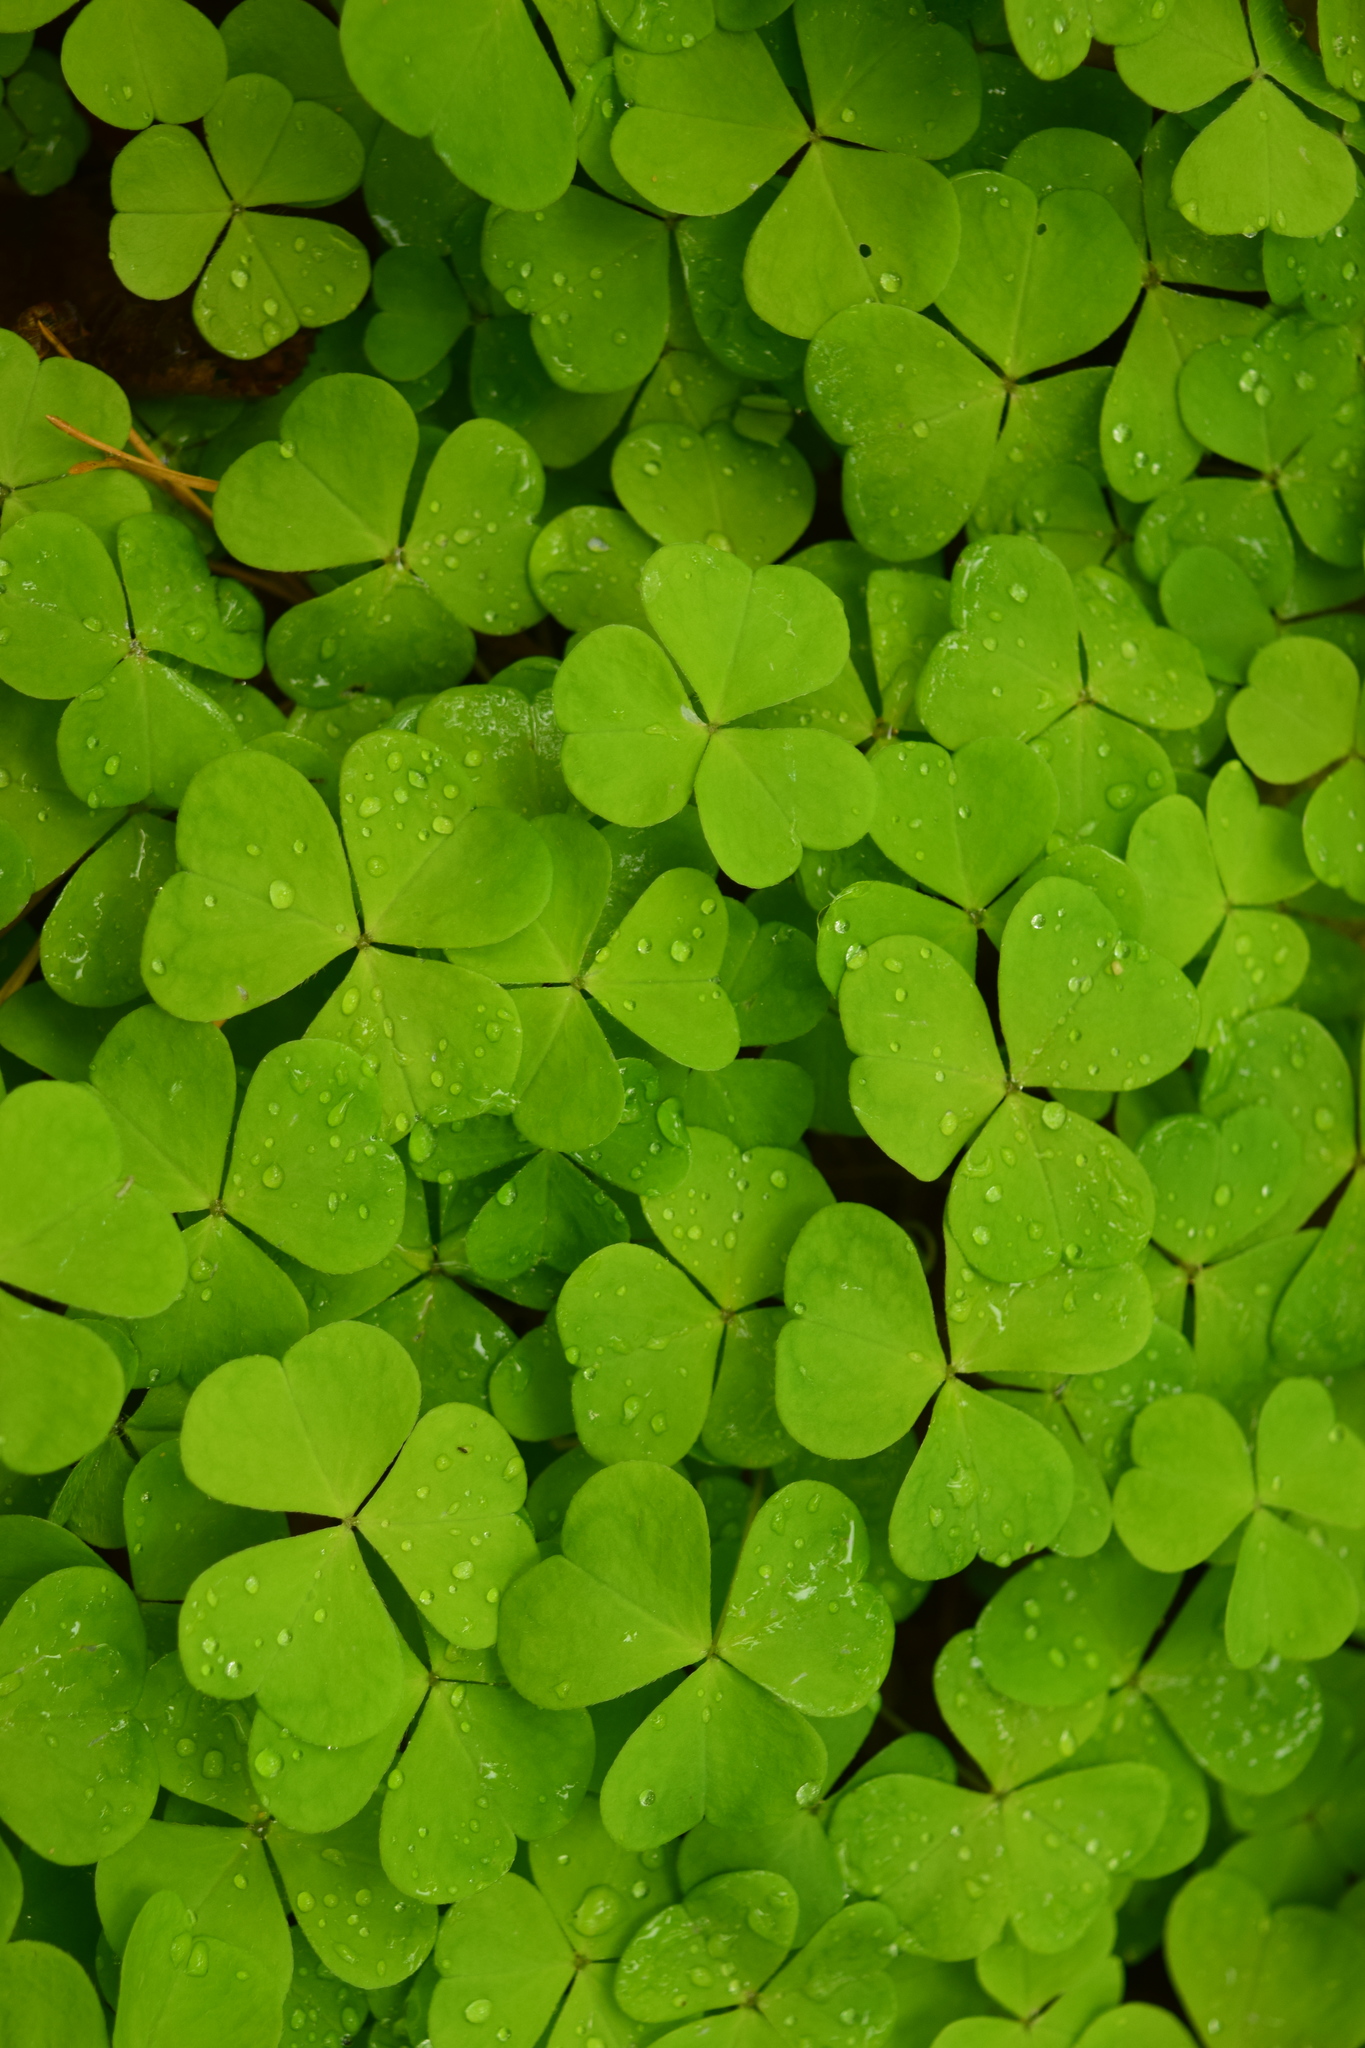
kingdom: Plantae
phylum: Tracheophyta
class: Magnoliopsida
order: Oxalidales
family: Oxalidaceae
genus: Oxalis
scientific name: Oxalis acetosella
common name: Wood-sorrel
